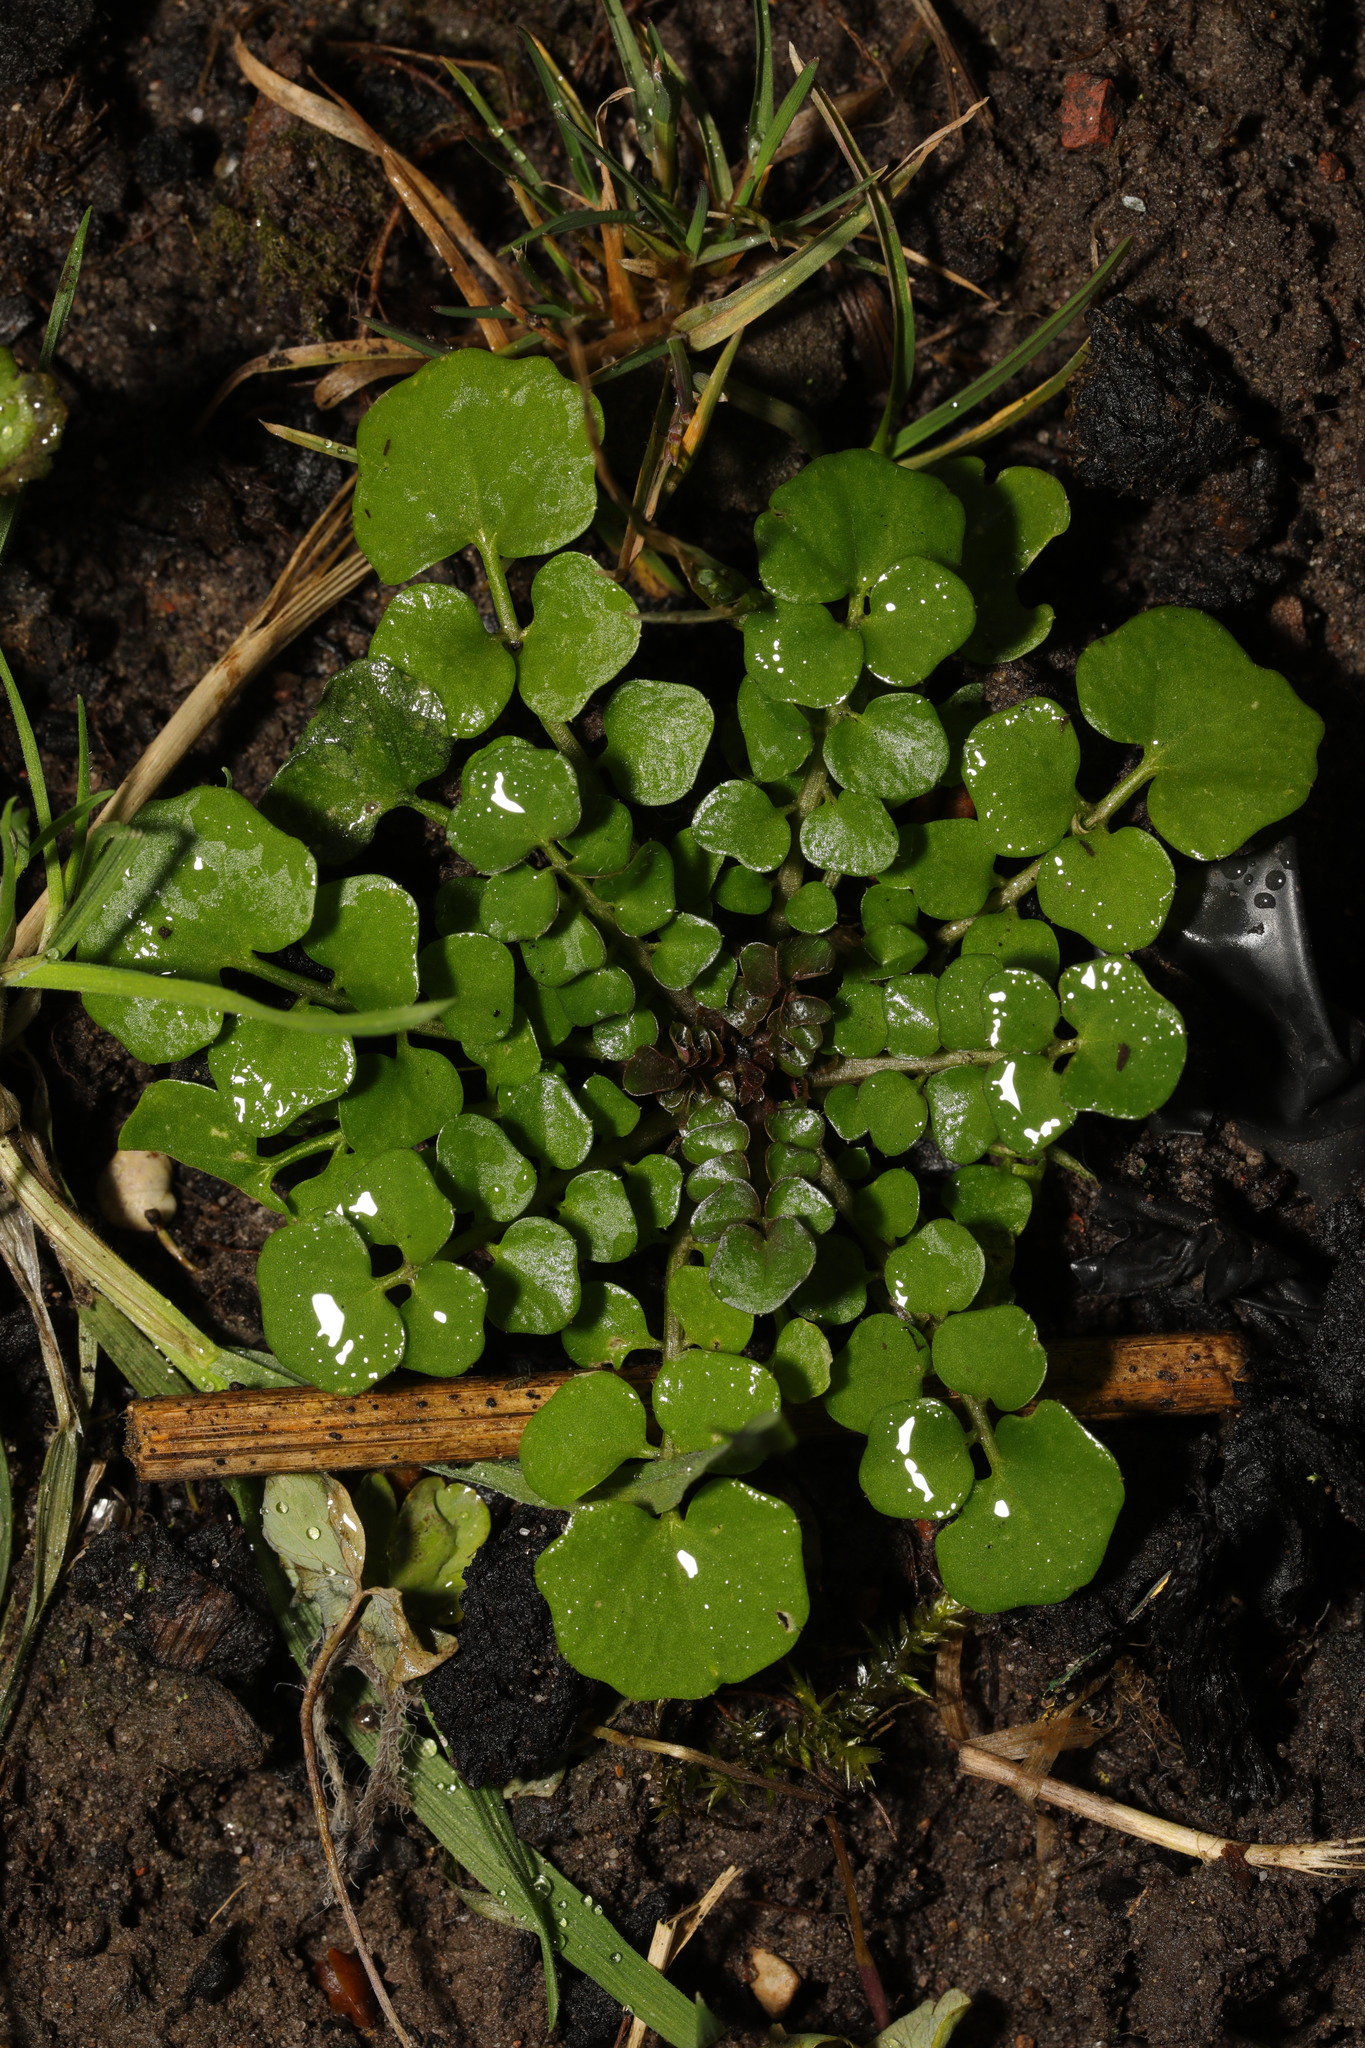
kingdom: Plantae
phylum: Tracheophyta
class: Magnoliopsida
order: Brassicales
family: Brassicaceae
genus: Cardamine
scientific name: Cardamine hirsuta
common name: Hairy bittercress
